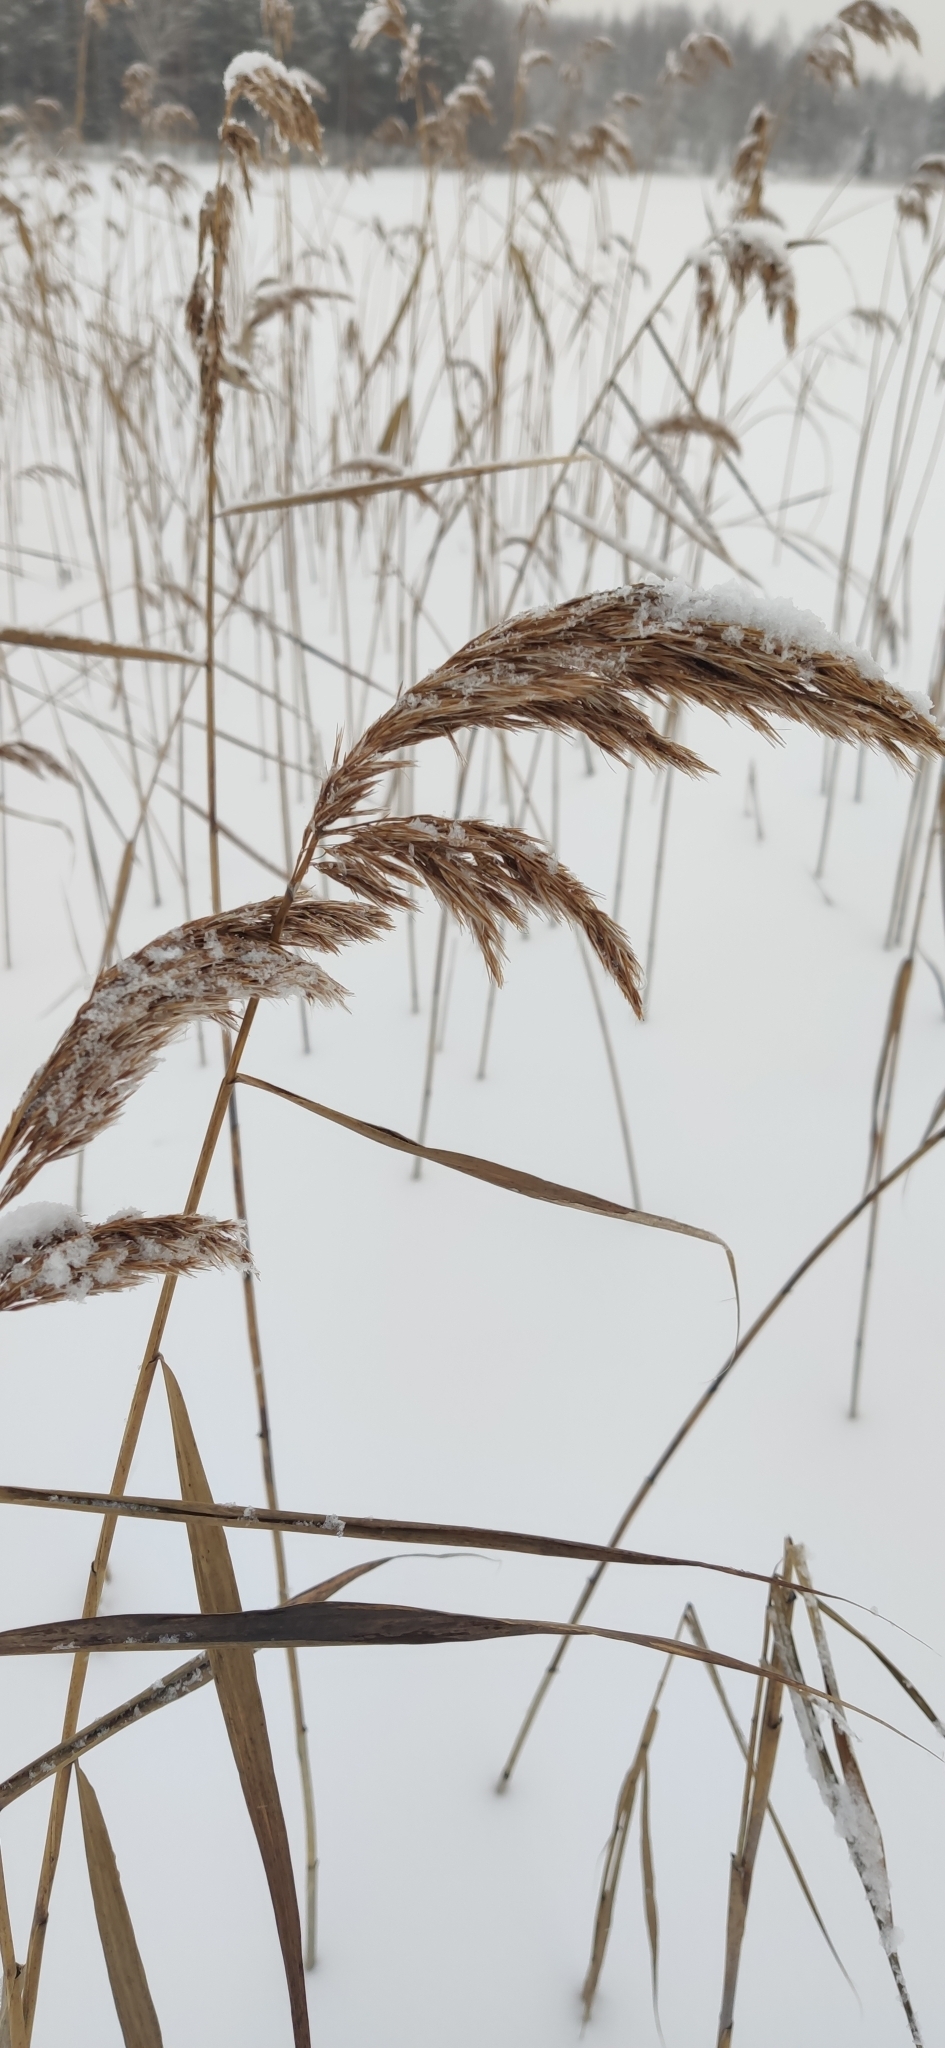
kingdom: Plantae
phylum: Tracheophyta
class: Liliopsida
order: Poales
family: Poaceae
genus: Phragmites
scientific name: Phragmites australis
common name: Common reed
